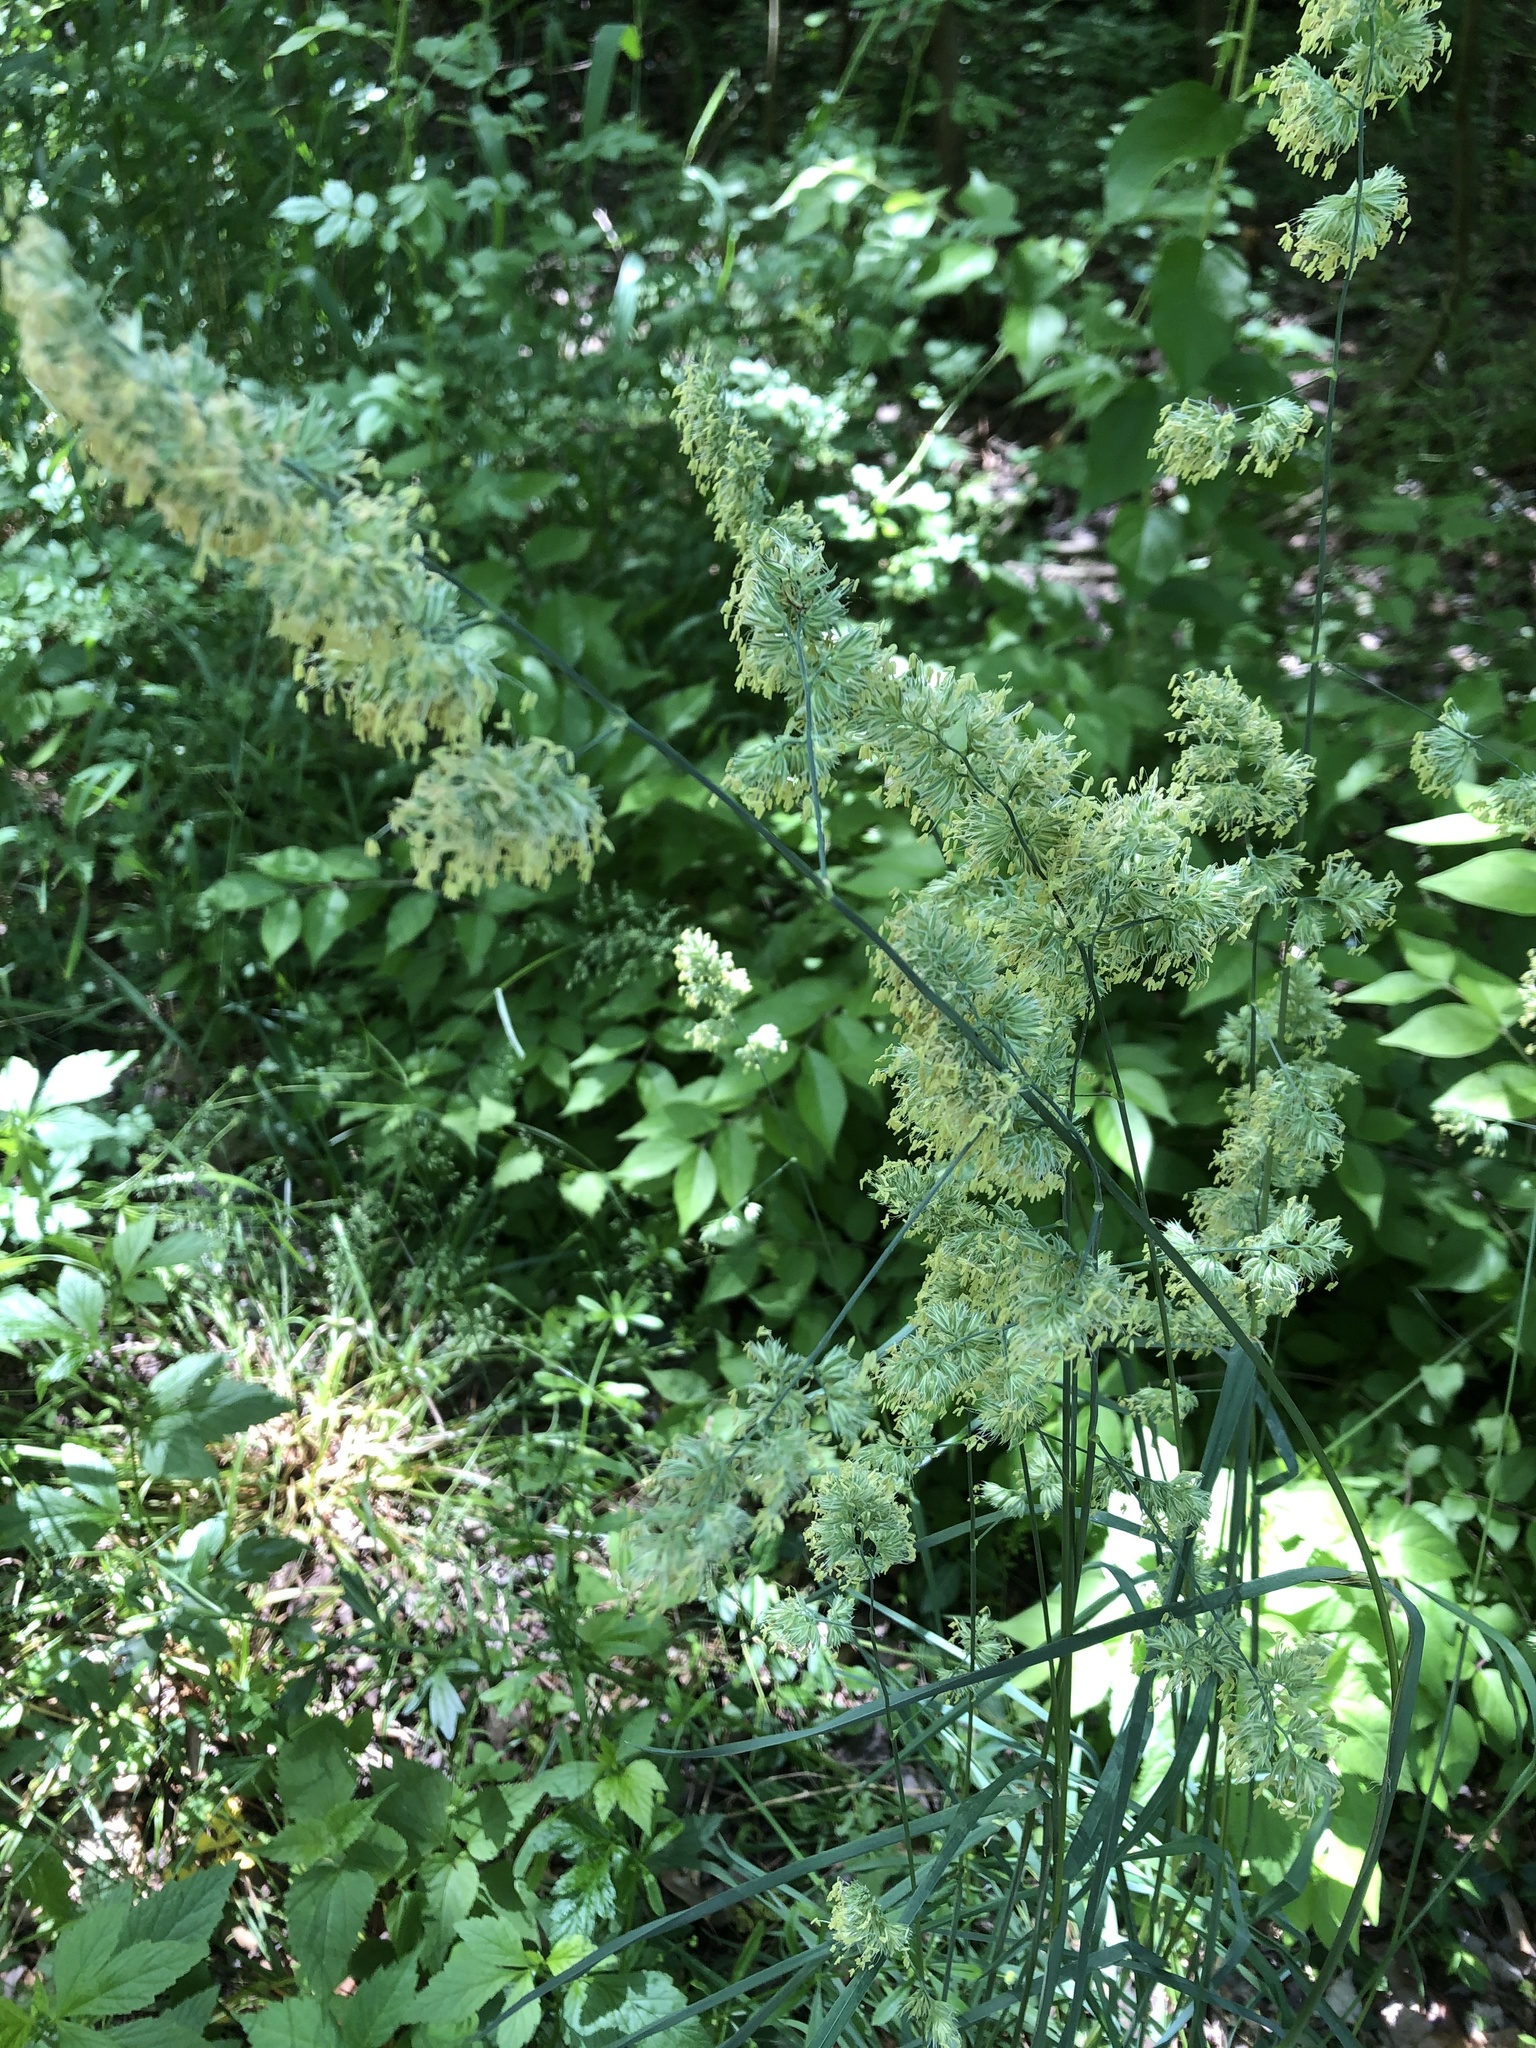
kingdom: Plantae
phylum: Tracheophyta
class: Liliopsida
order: Poales
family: Poaceae
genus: Dactylis
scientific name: Dactylis glomerata
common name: Orchardgrass
